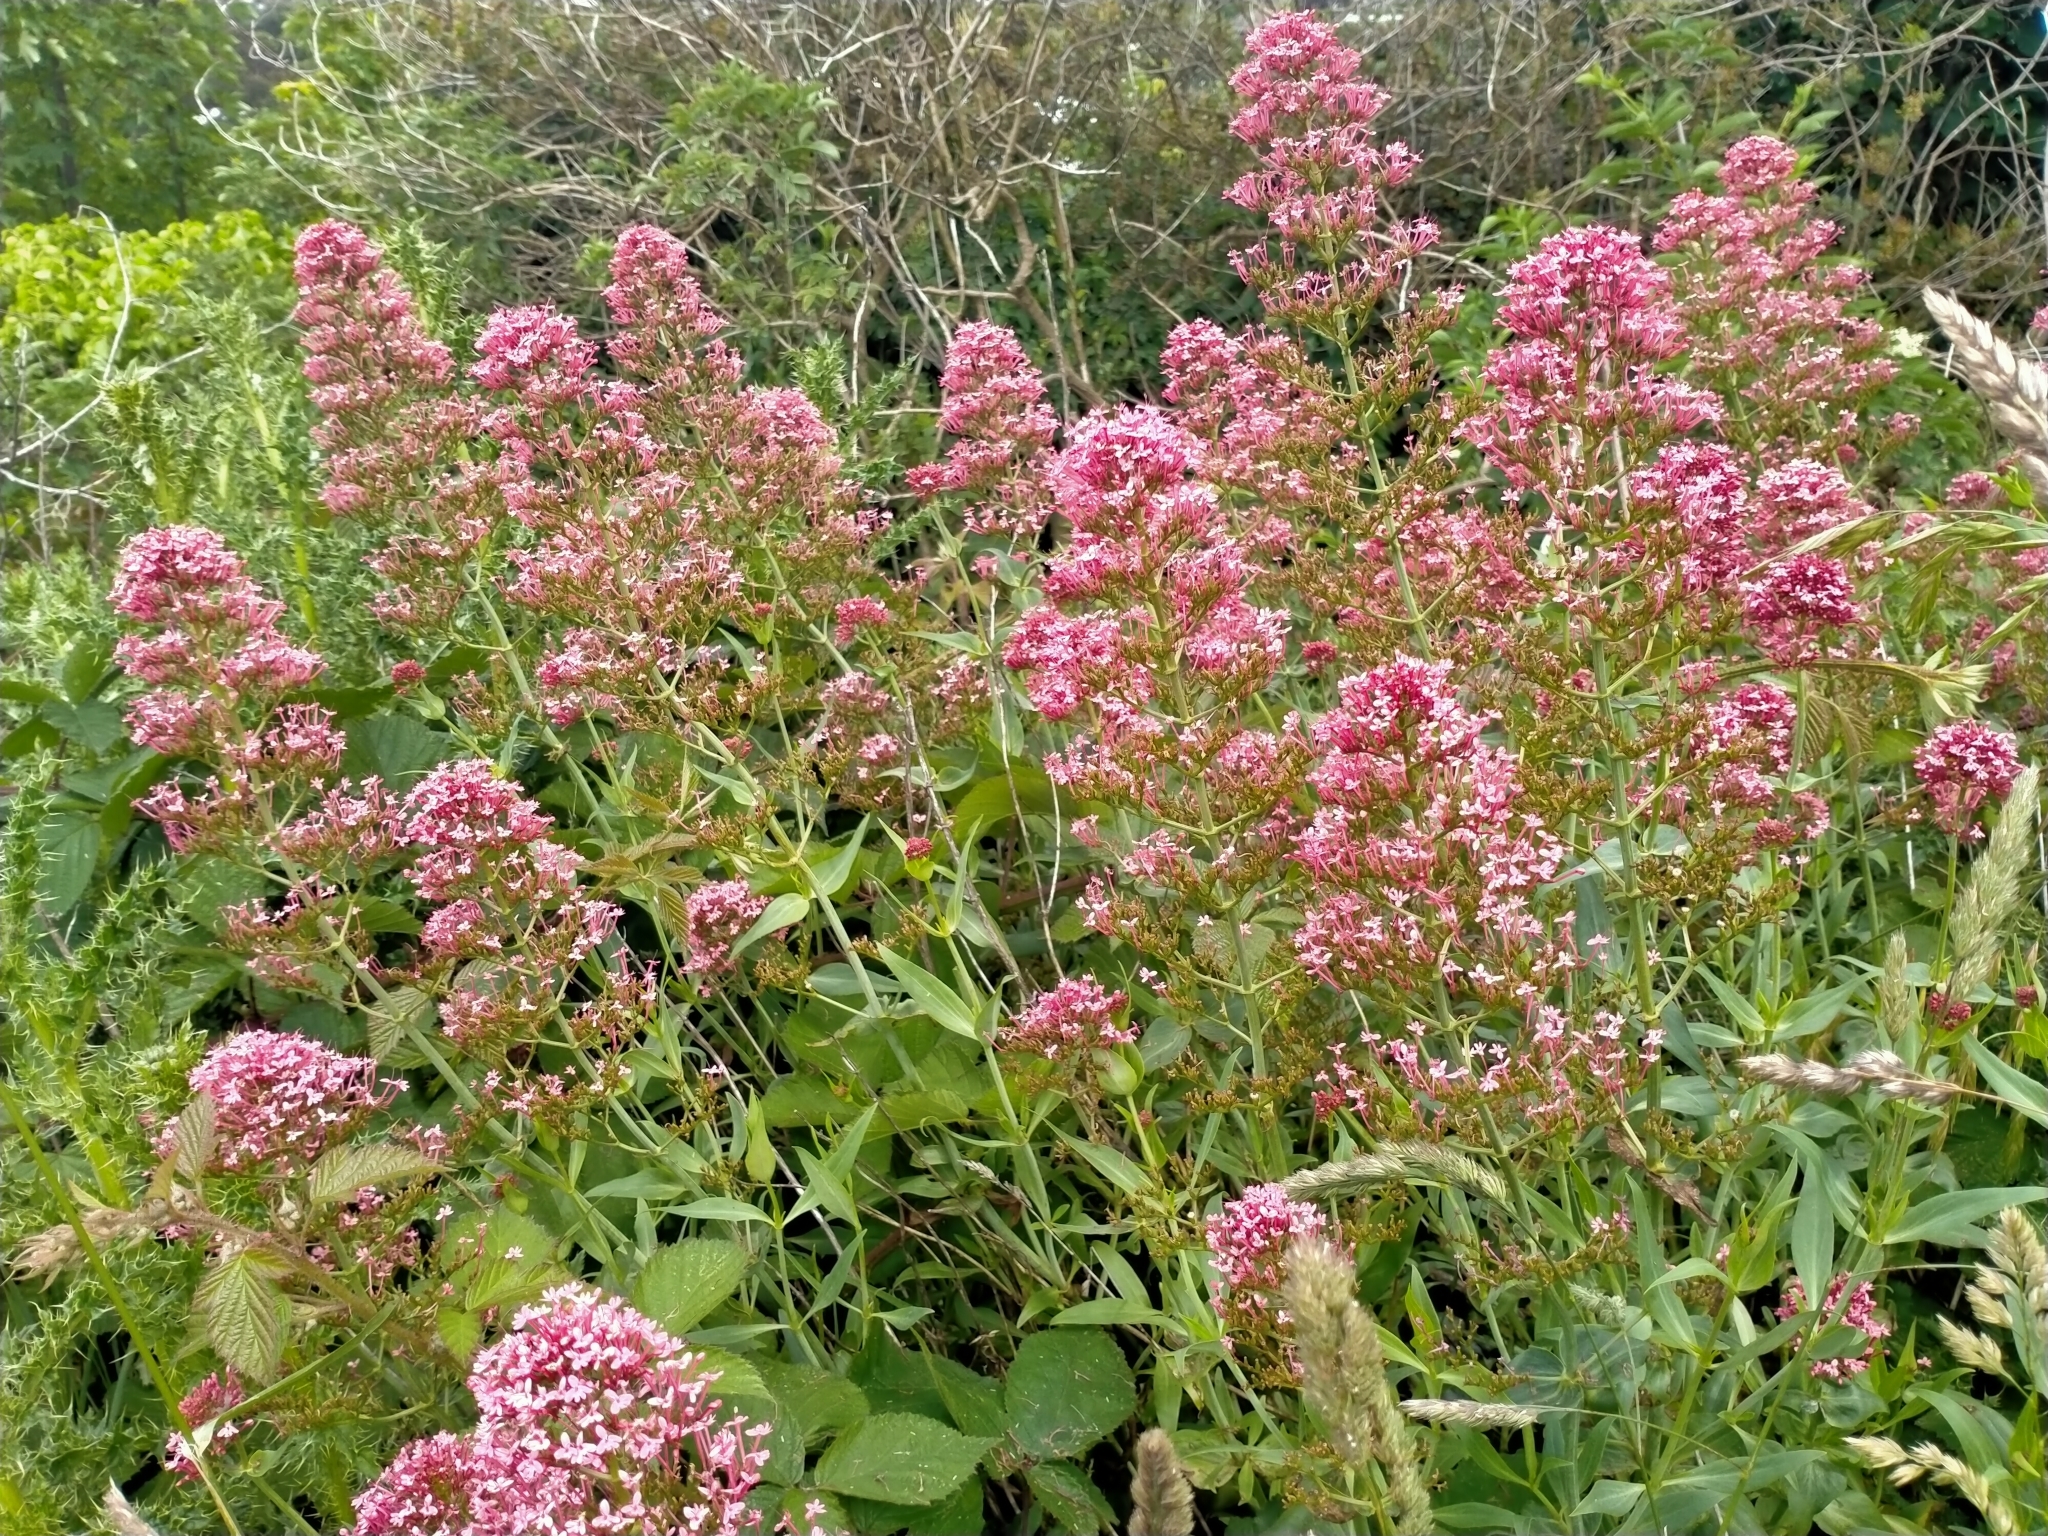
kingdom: Plantae
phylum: Tracheophyta
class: Magnoliopsida
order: Dipsacales
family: Caprifoliaceae
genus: Centranthus
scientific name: Centranthus ruber
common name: Red valerian
